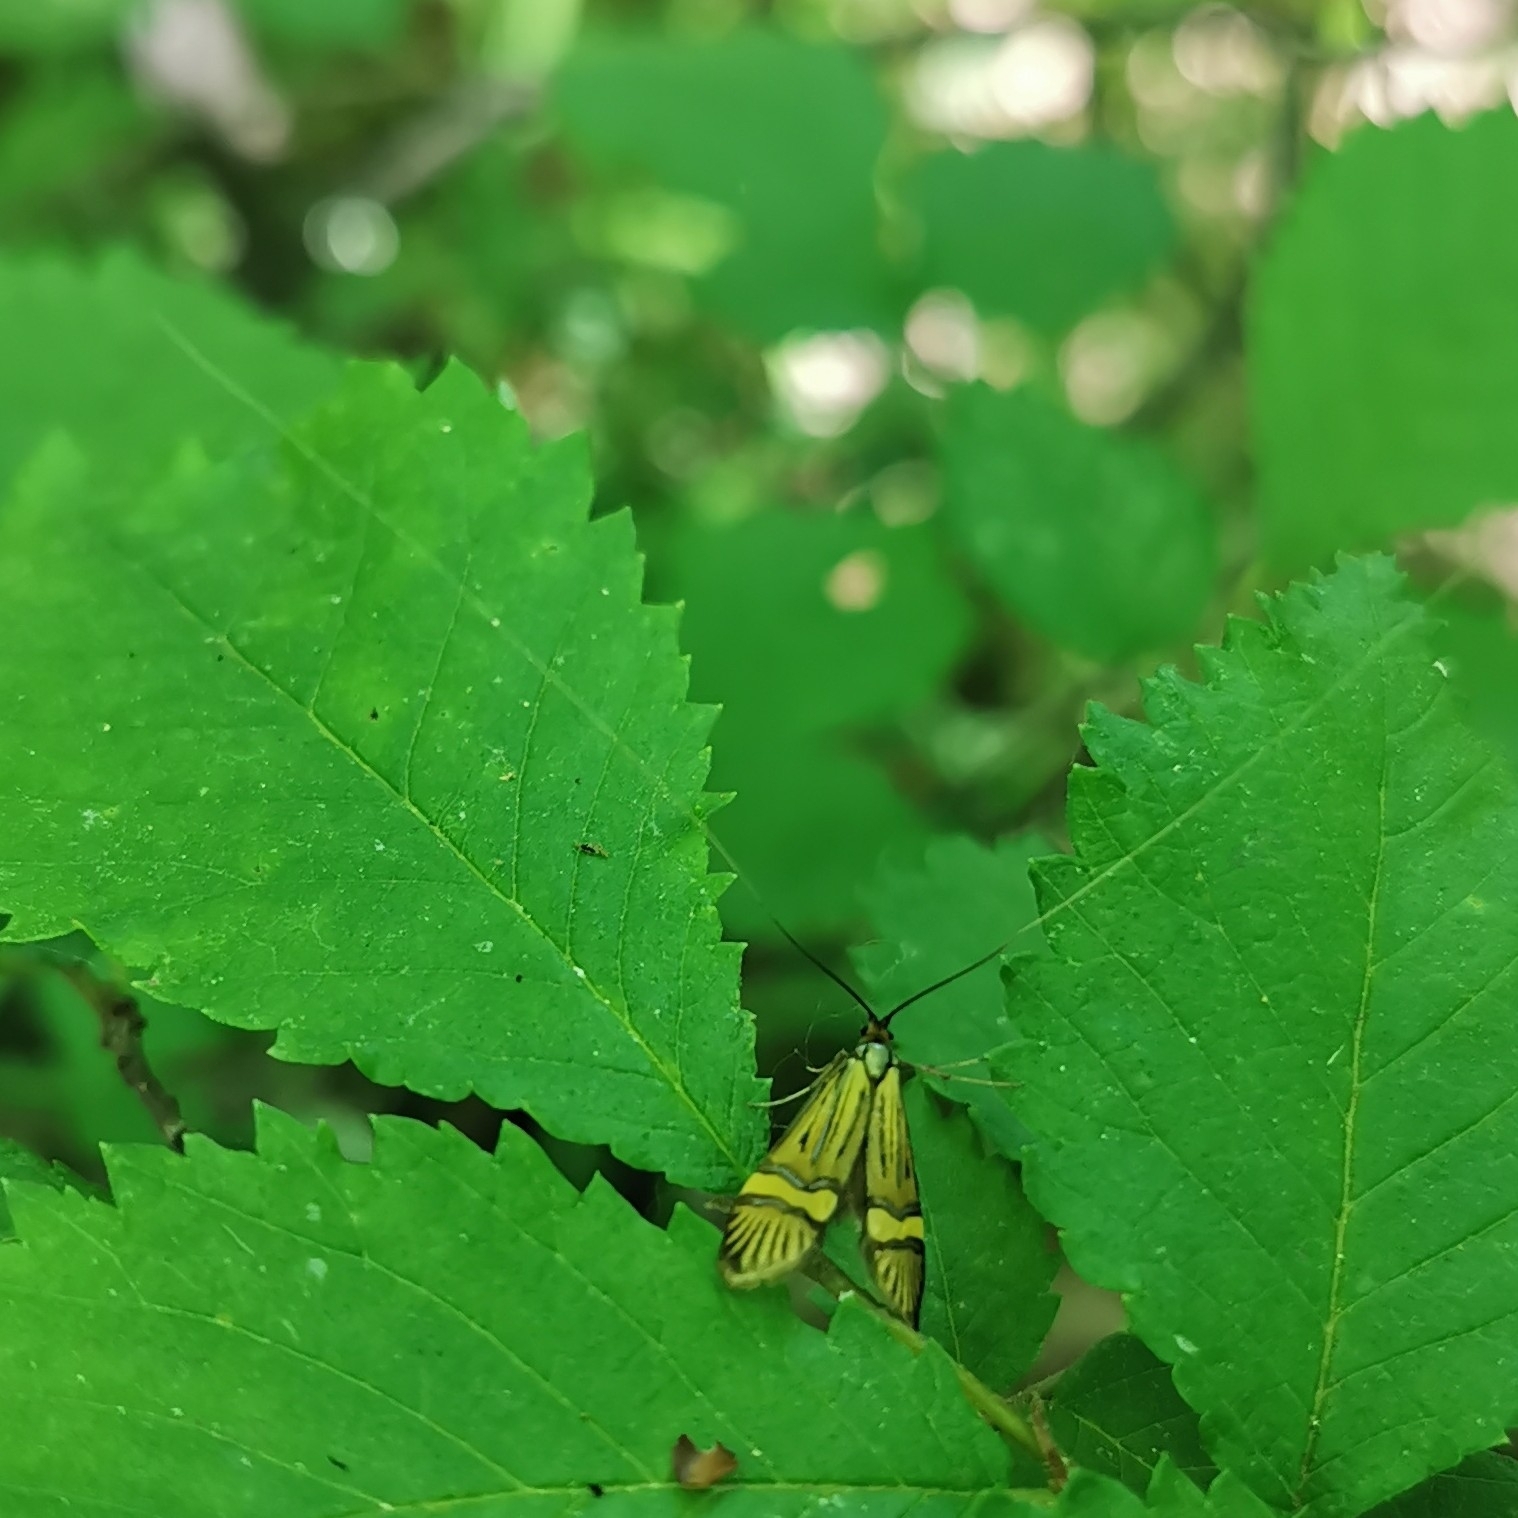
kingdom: Animalia
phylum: Arthropoda
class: Insecta
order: Lepidoptera
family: Adelidae
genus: Nemophora
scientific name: Nemophora degeerella
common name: Yellow-barred long-horn
